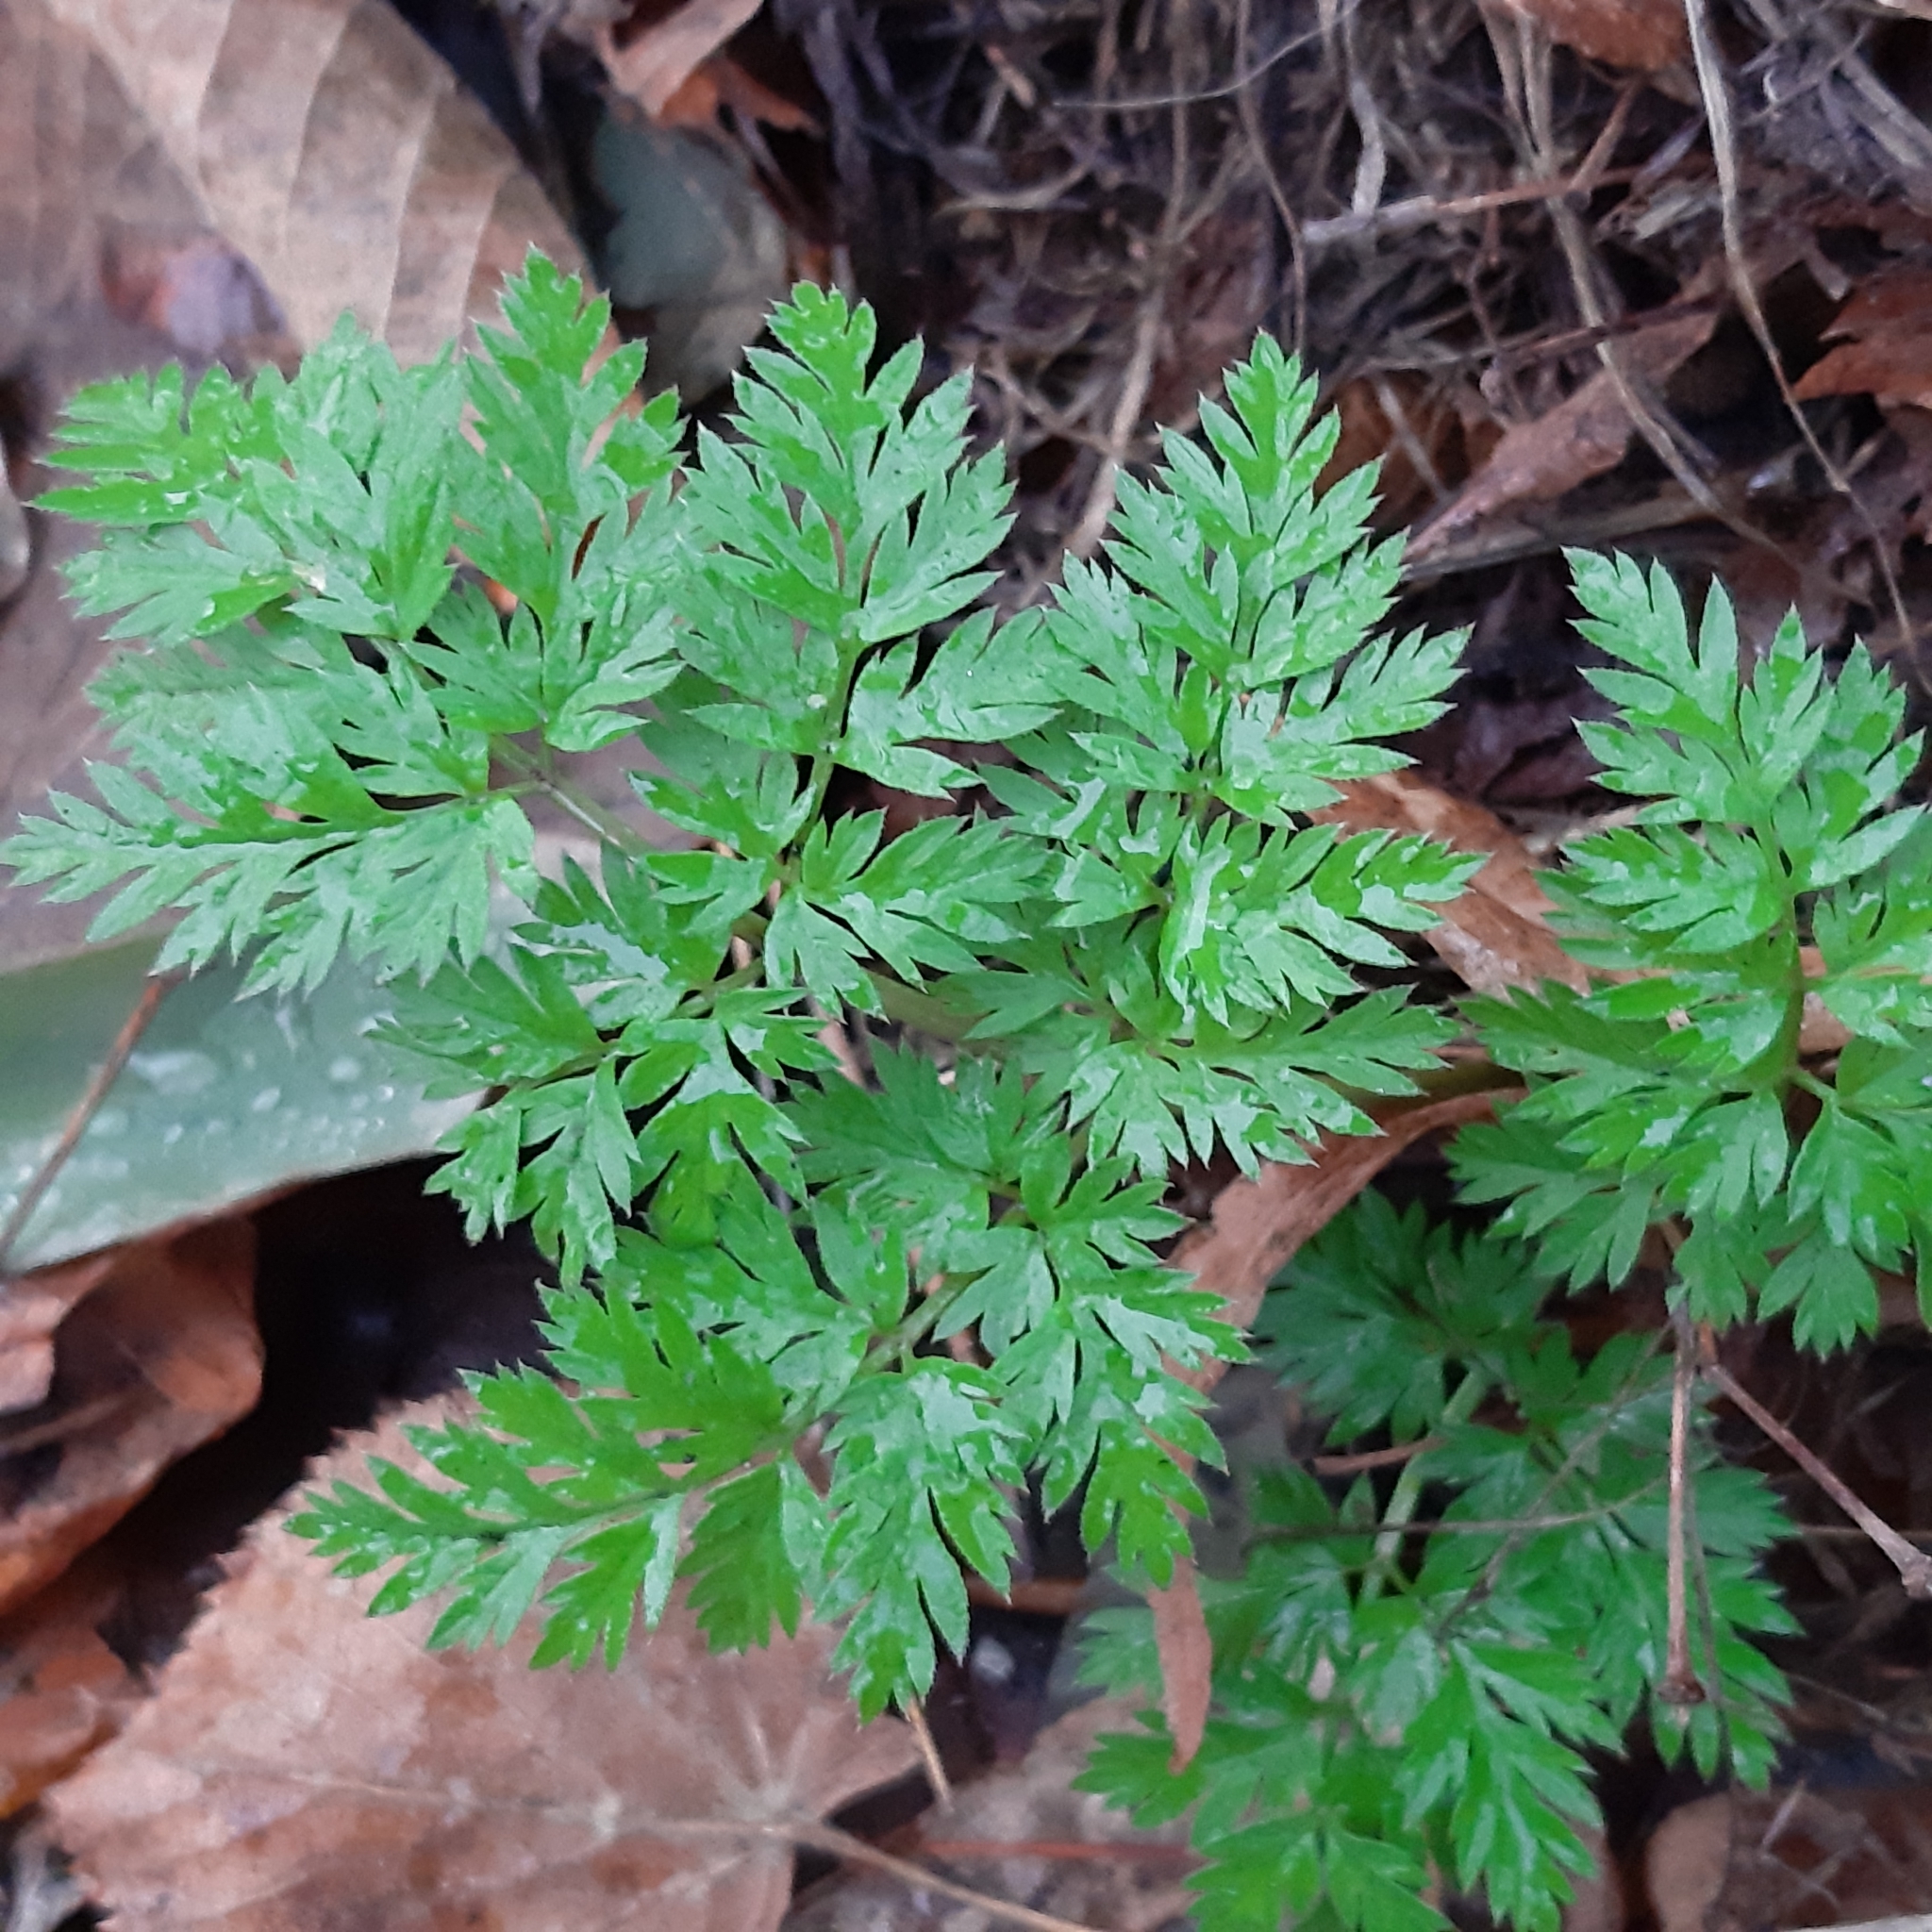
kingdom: Plantae
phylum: Tracheophyta
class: Magnoliopsida
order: Apiales
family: Apiaceae
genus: Anthriscus
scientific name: Anthriscus sylvestris
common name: Cow parsley
